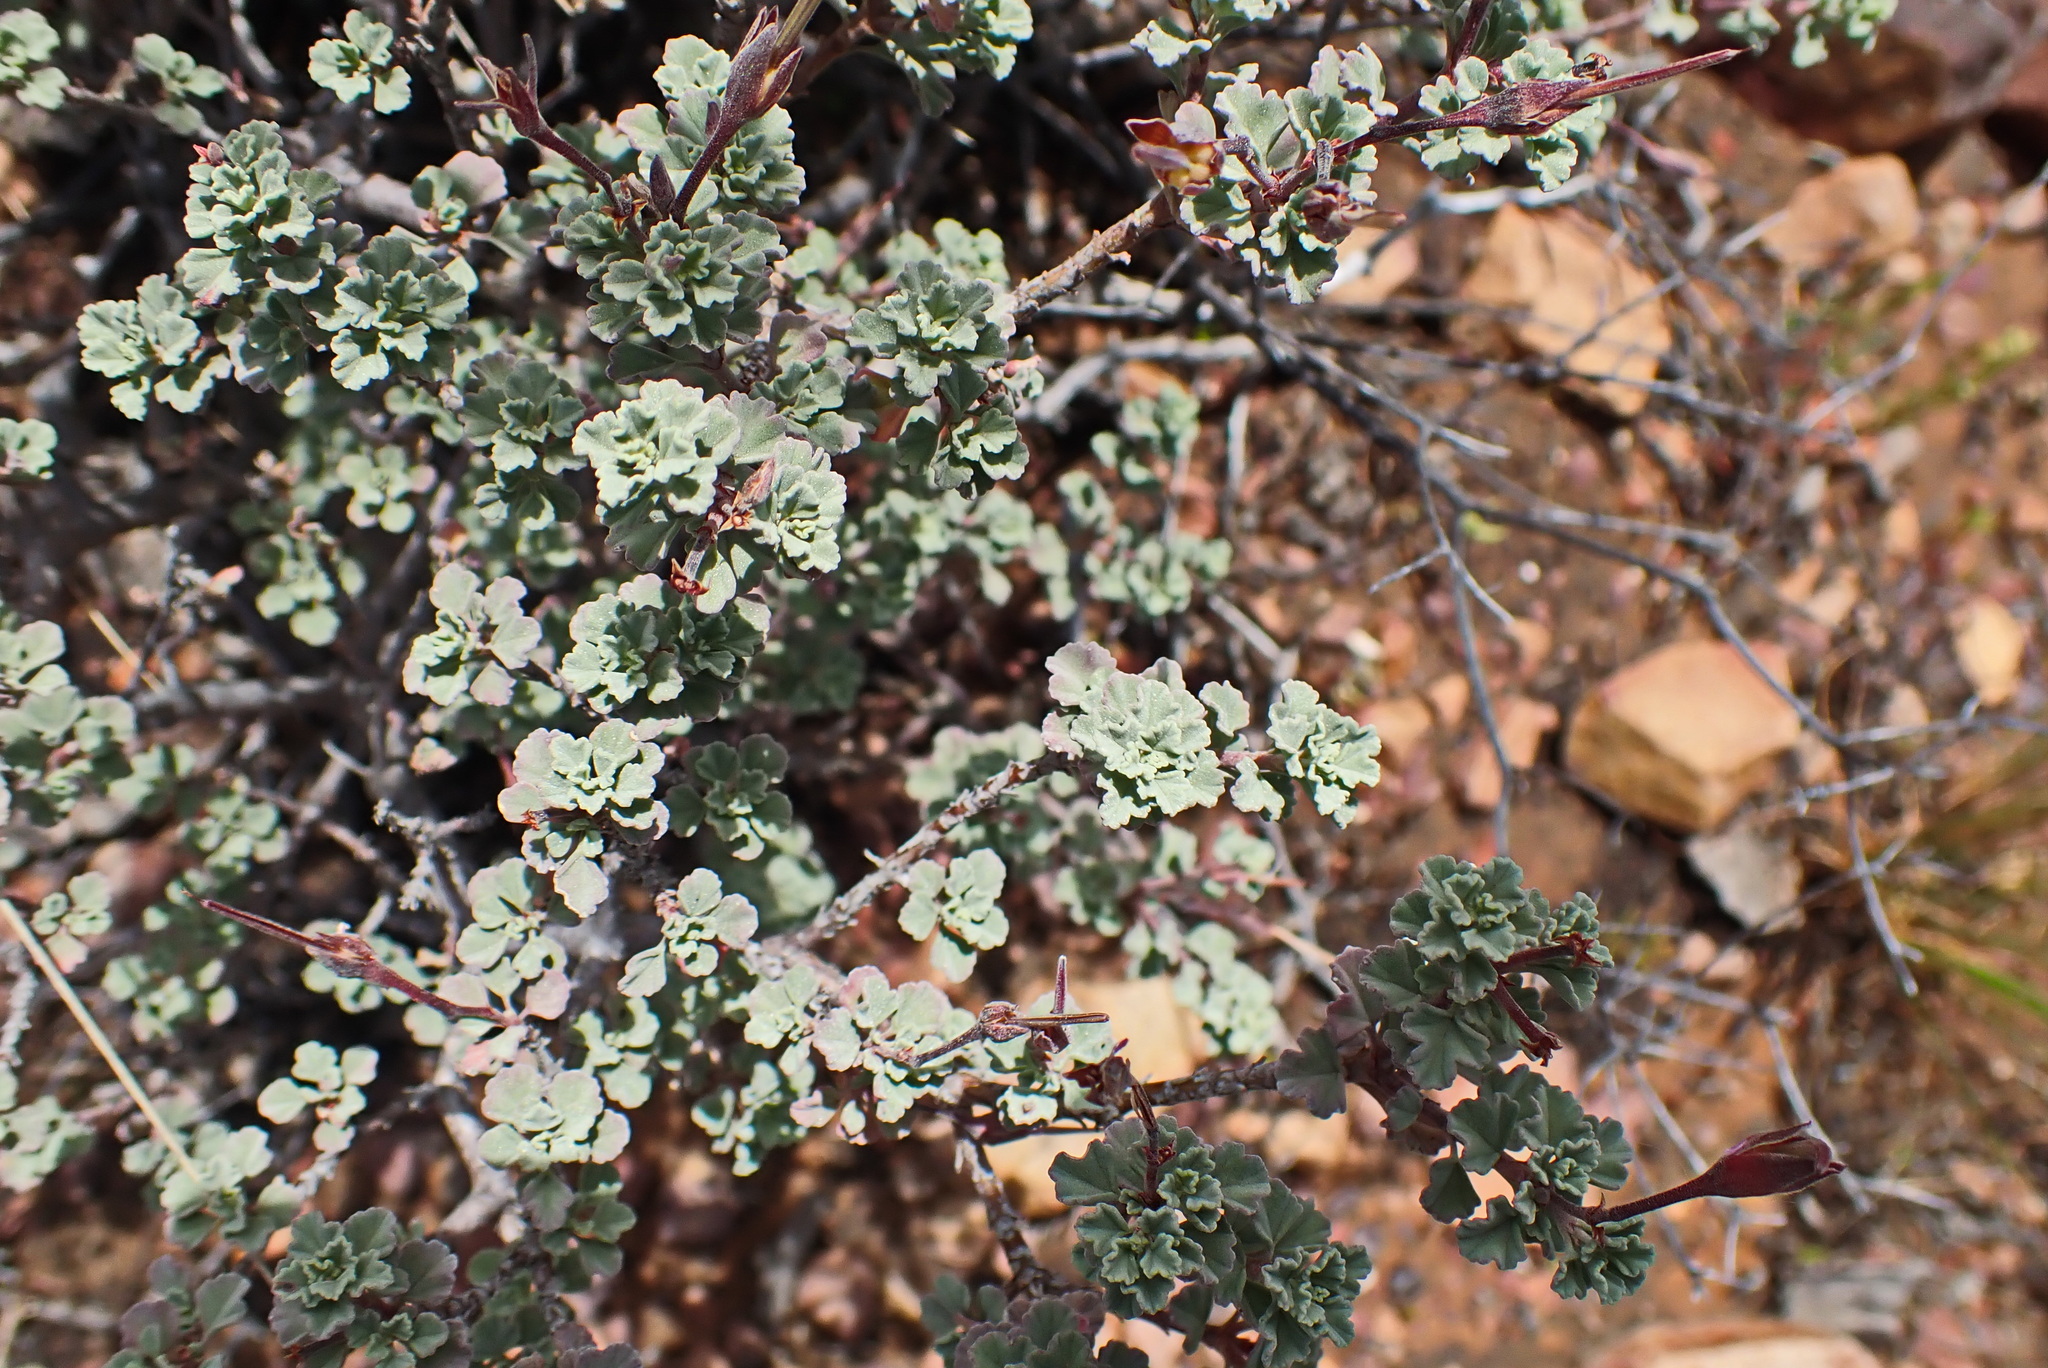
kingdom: Plantae
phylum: Tracheophyta
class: Magnoliopsida
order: Geraniales
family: Geraniaceae
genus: Pelargonium
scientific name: Pelargonium exstipulatum
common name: Soft-leaf trifid pelargonium
